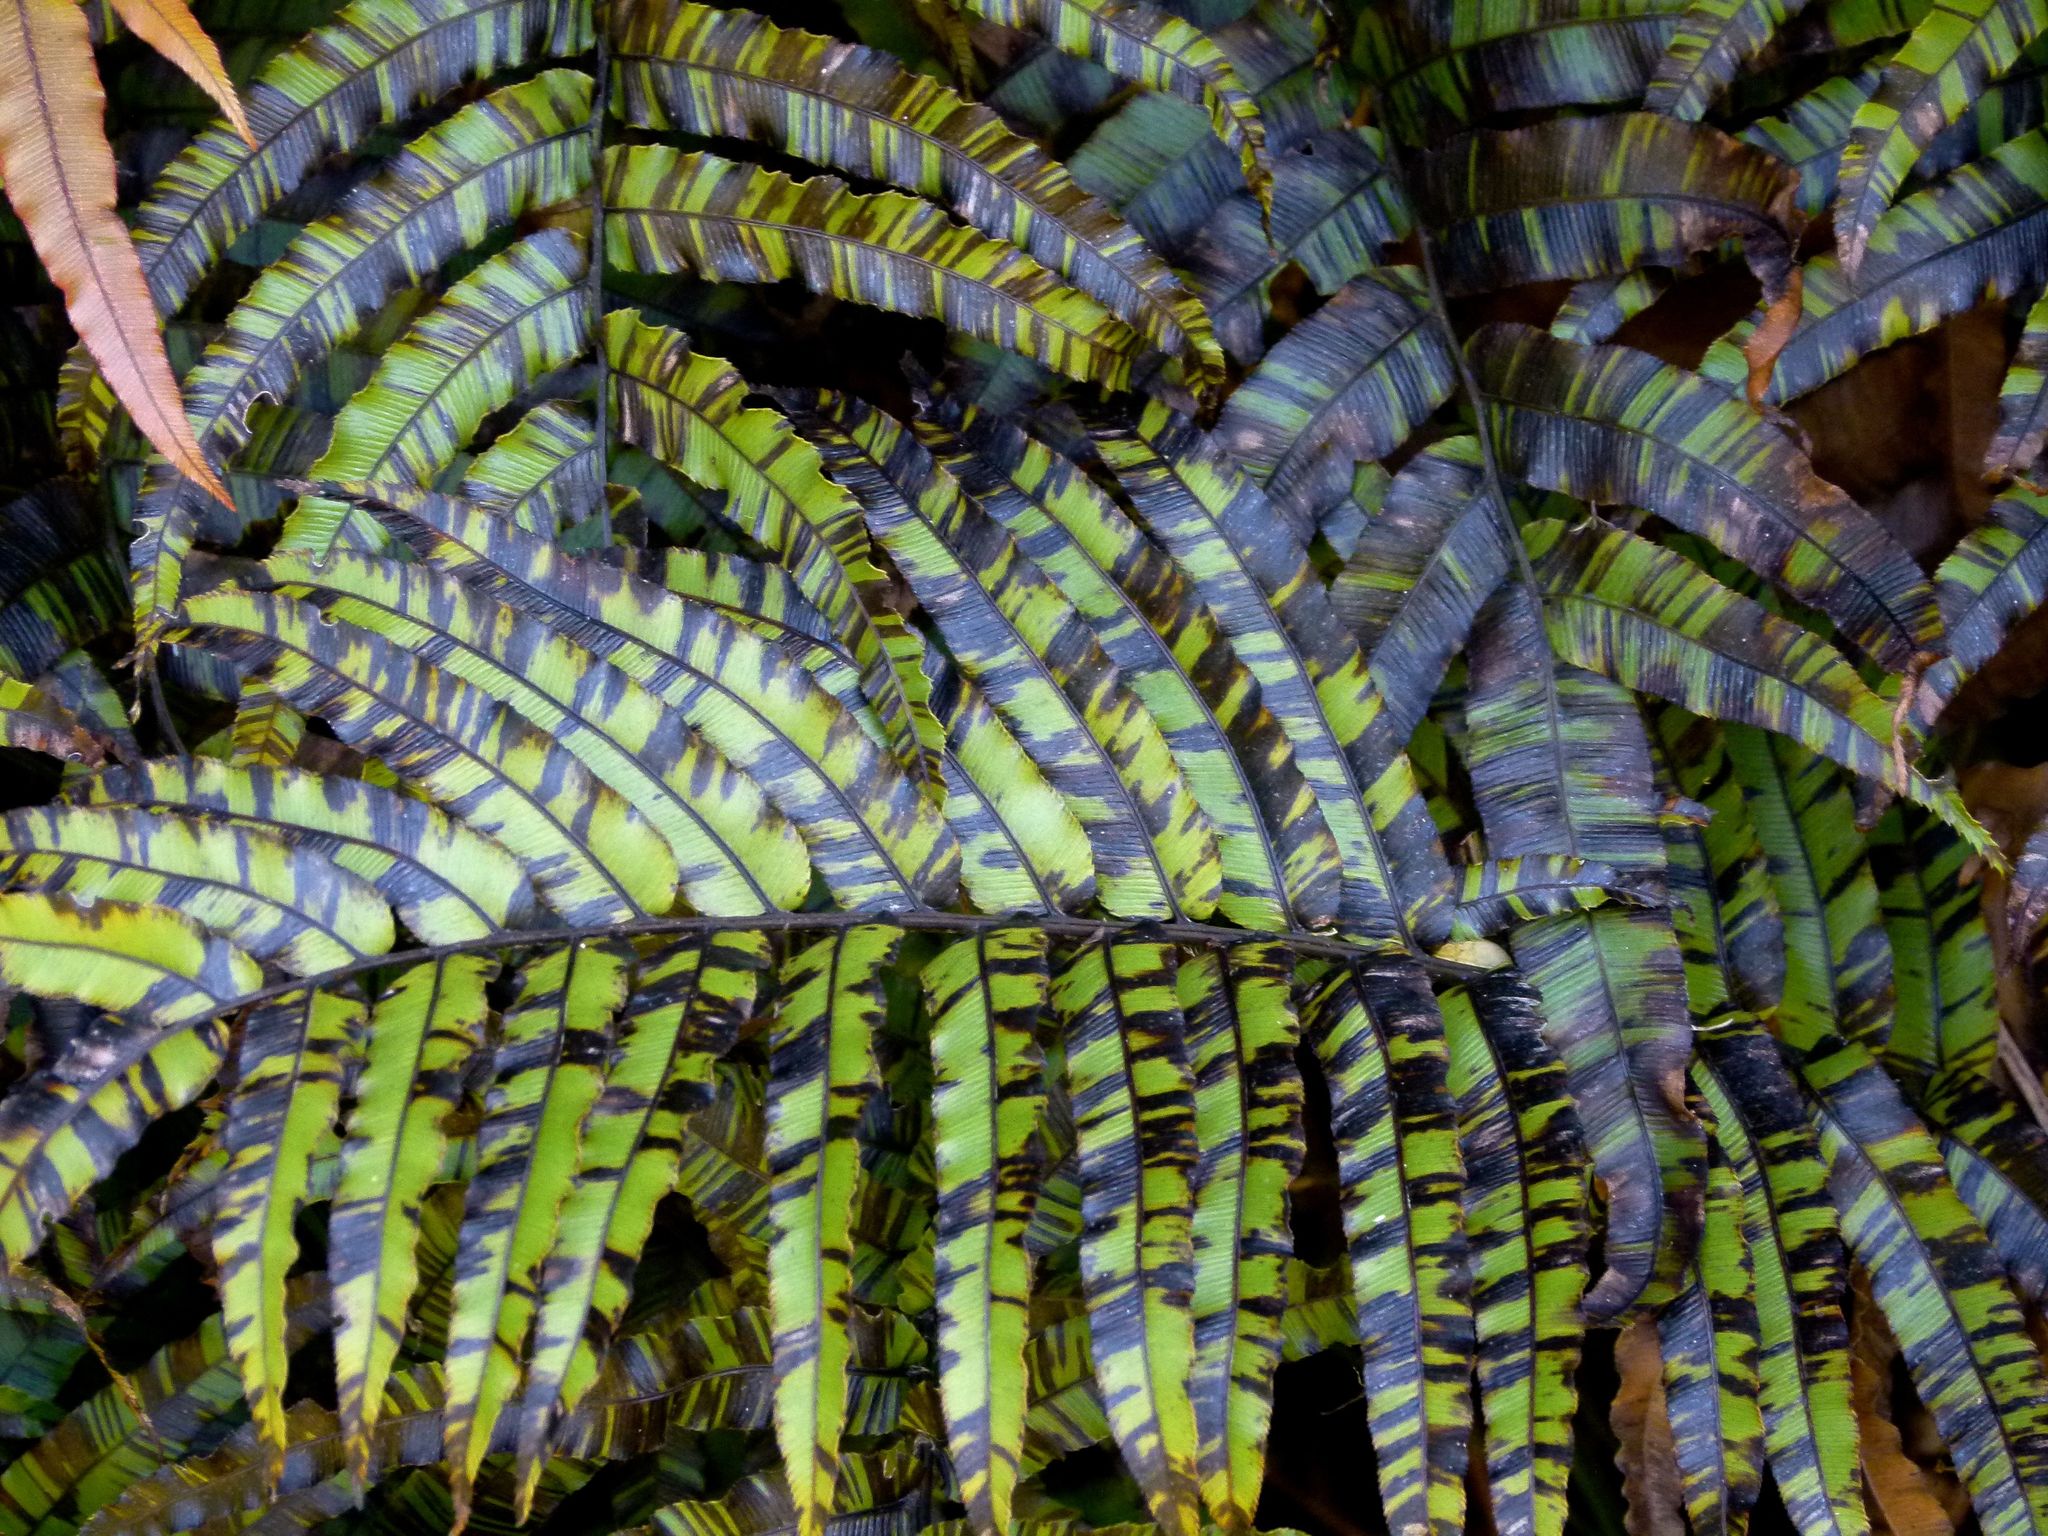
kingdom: Plantae
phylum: Tracheophyta
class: Polypodiopsida
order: Polypodiales
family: Blechnaceae
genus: Parablechnum
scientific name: Parablechnum novae-zelandiae
